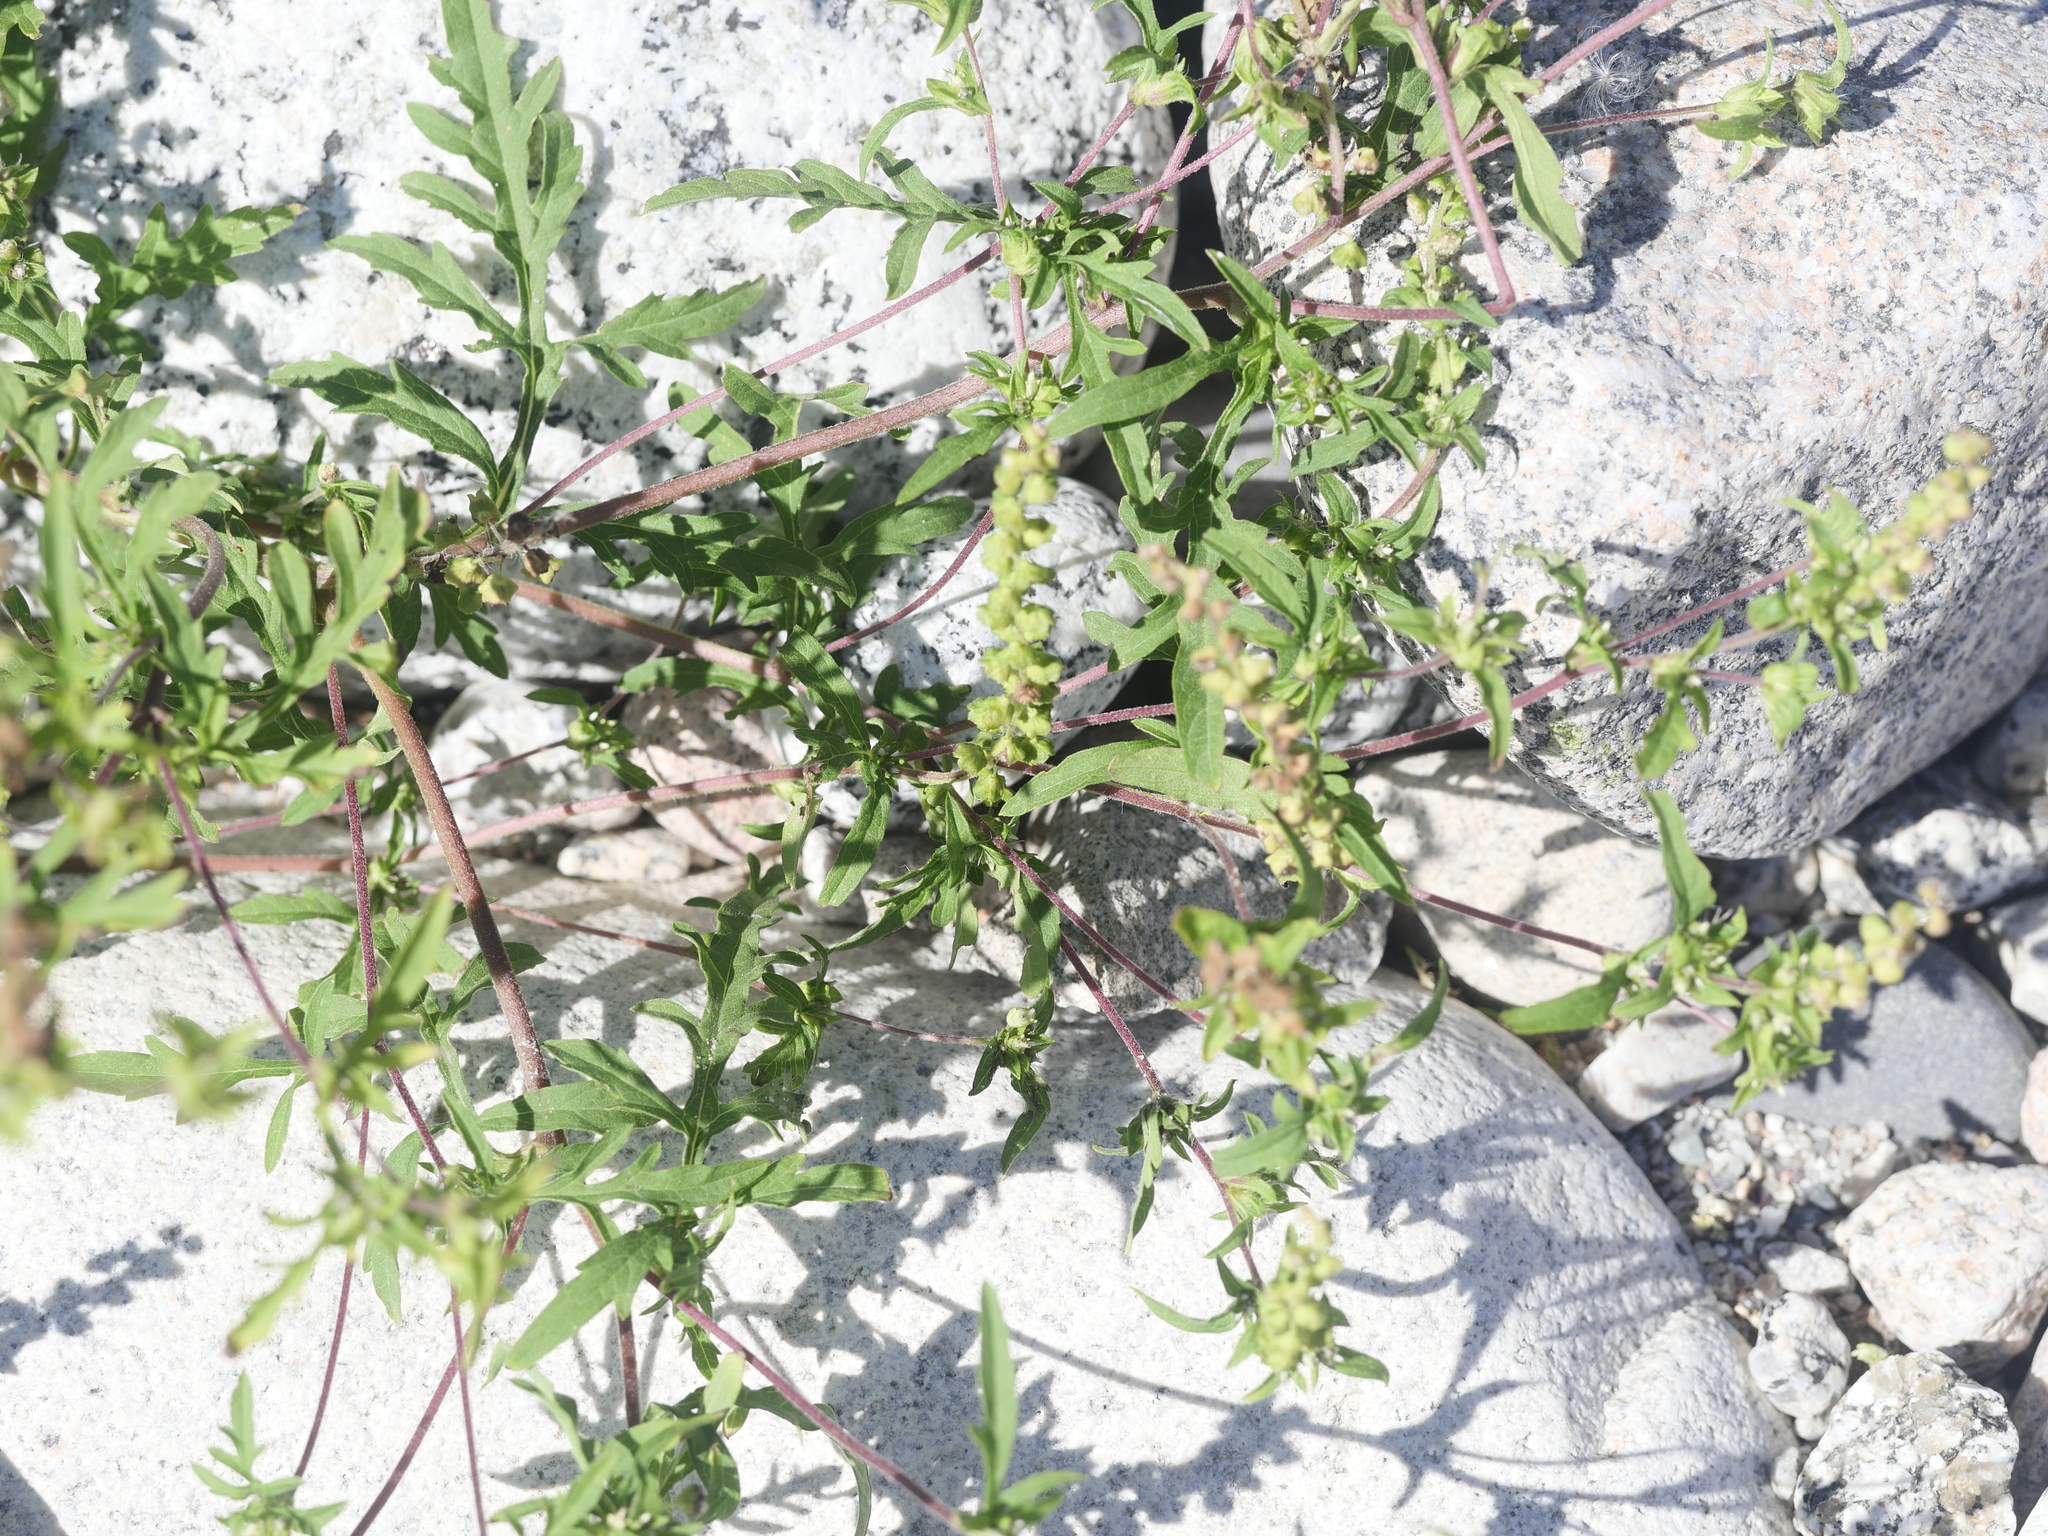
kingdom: Plantae
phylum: Tracheophyta
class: Magnoliopsida
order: Asterales
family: Asteraceae
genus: Ambrosia
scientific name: Ambrosia artemisiifolia
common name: Annual ragweed
